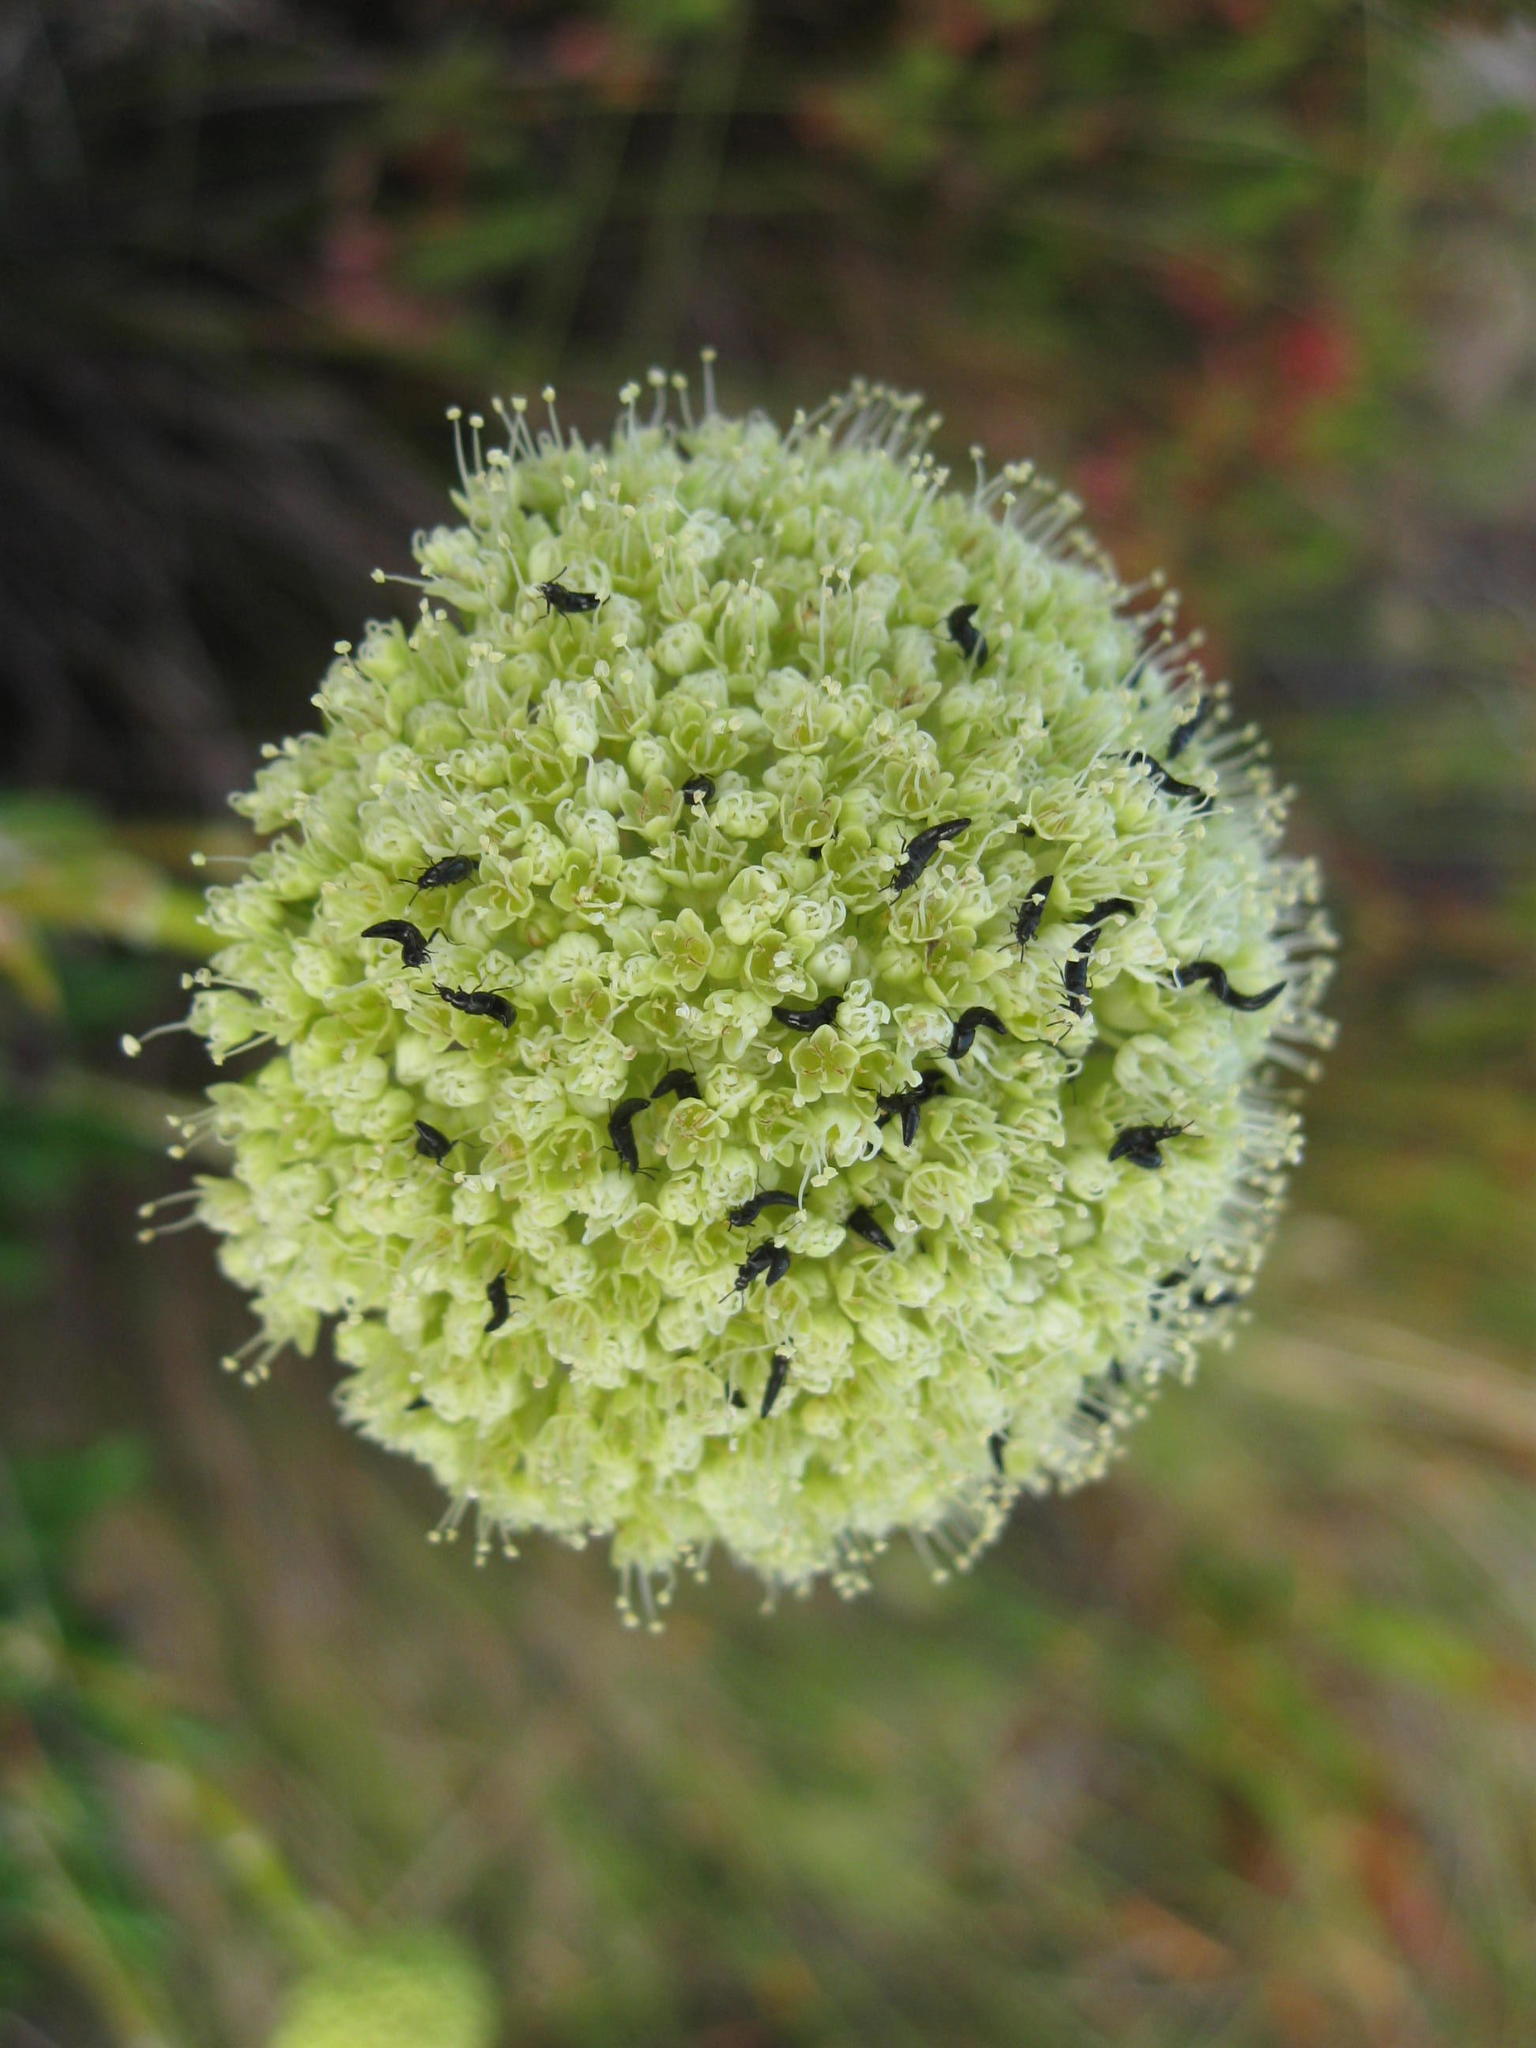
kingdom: Plantae
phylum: Tracheophyta
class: Magnoliopsida
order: Apiales
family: Apiaceae
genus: Hermas
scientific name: Hermas villosa
